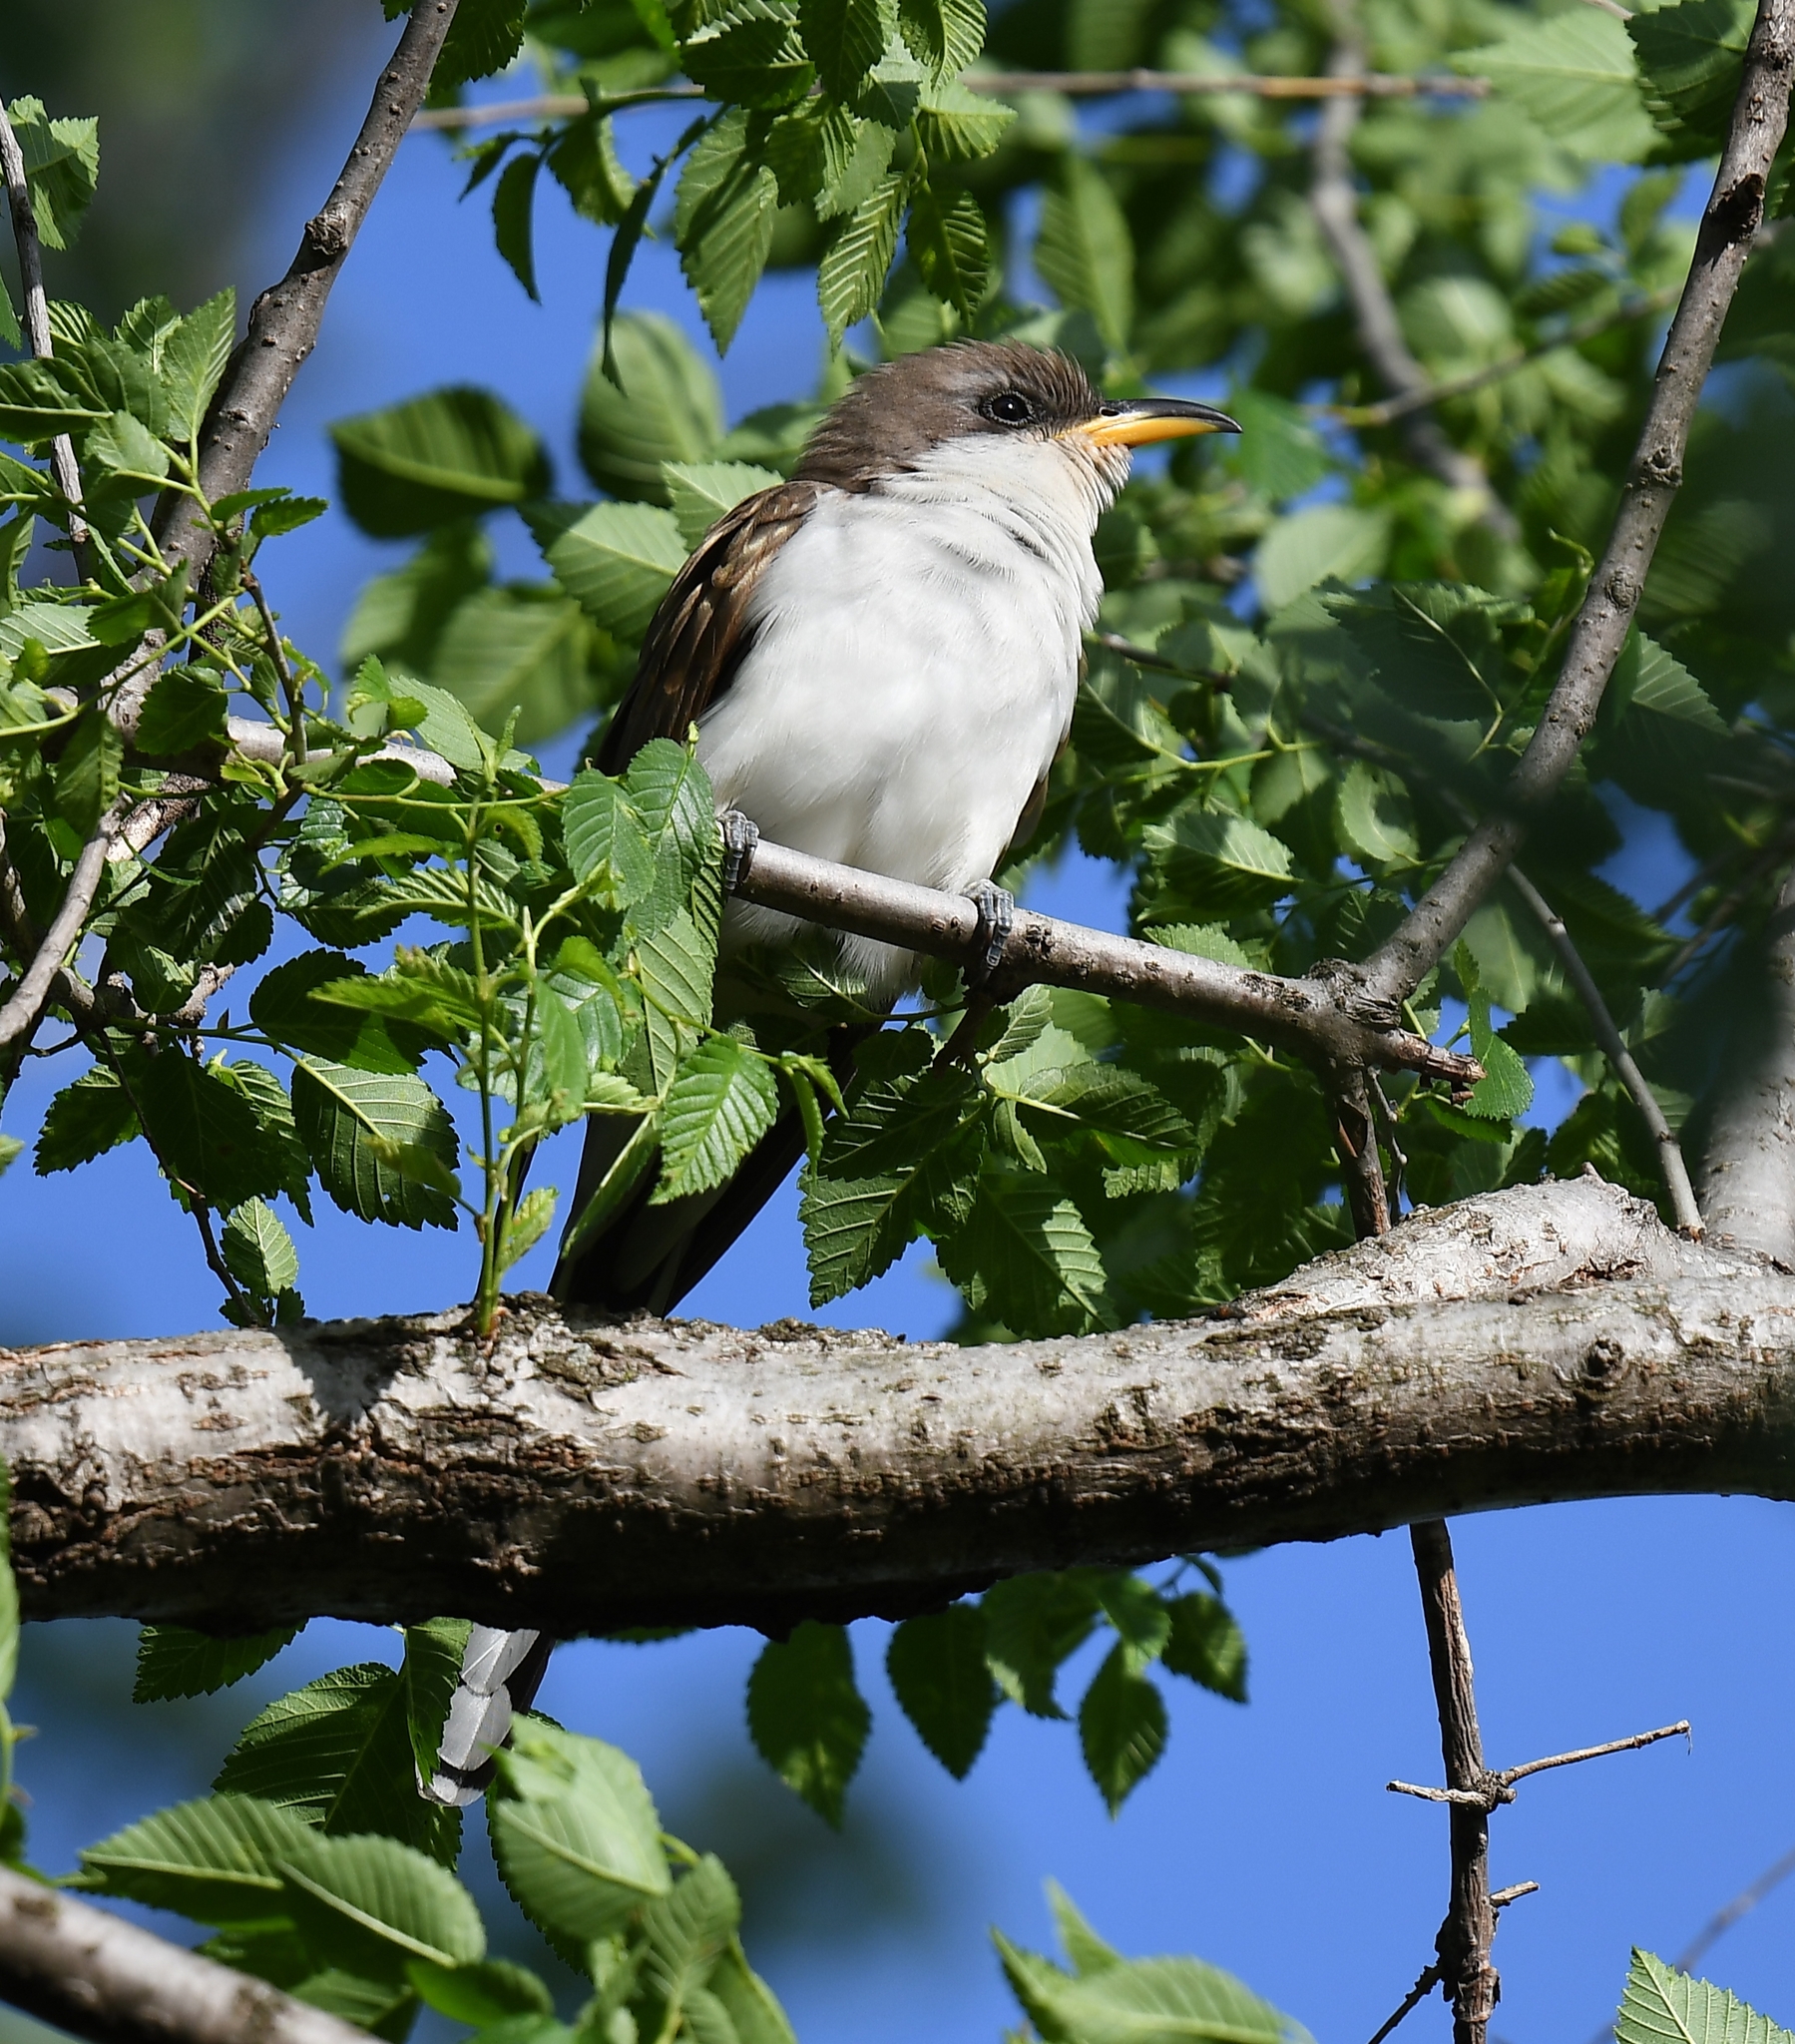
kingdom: Animalia
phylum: Chordata
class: Aves
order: Cuculiformes
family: Cuculidae
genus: Coccyzus
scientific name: Coccyzus americanus
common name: Yellow-billed cuckoo
